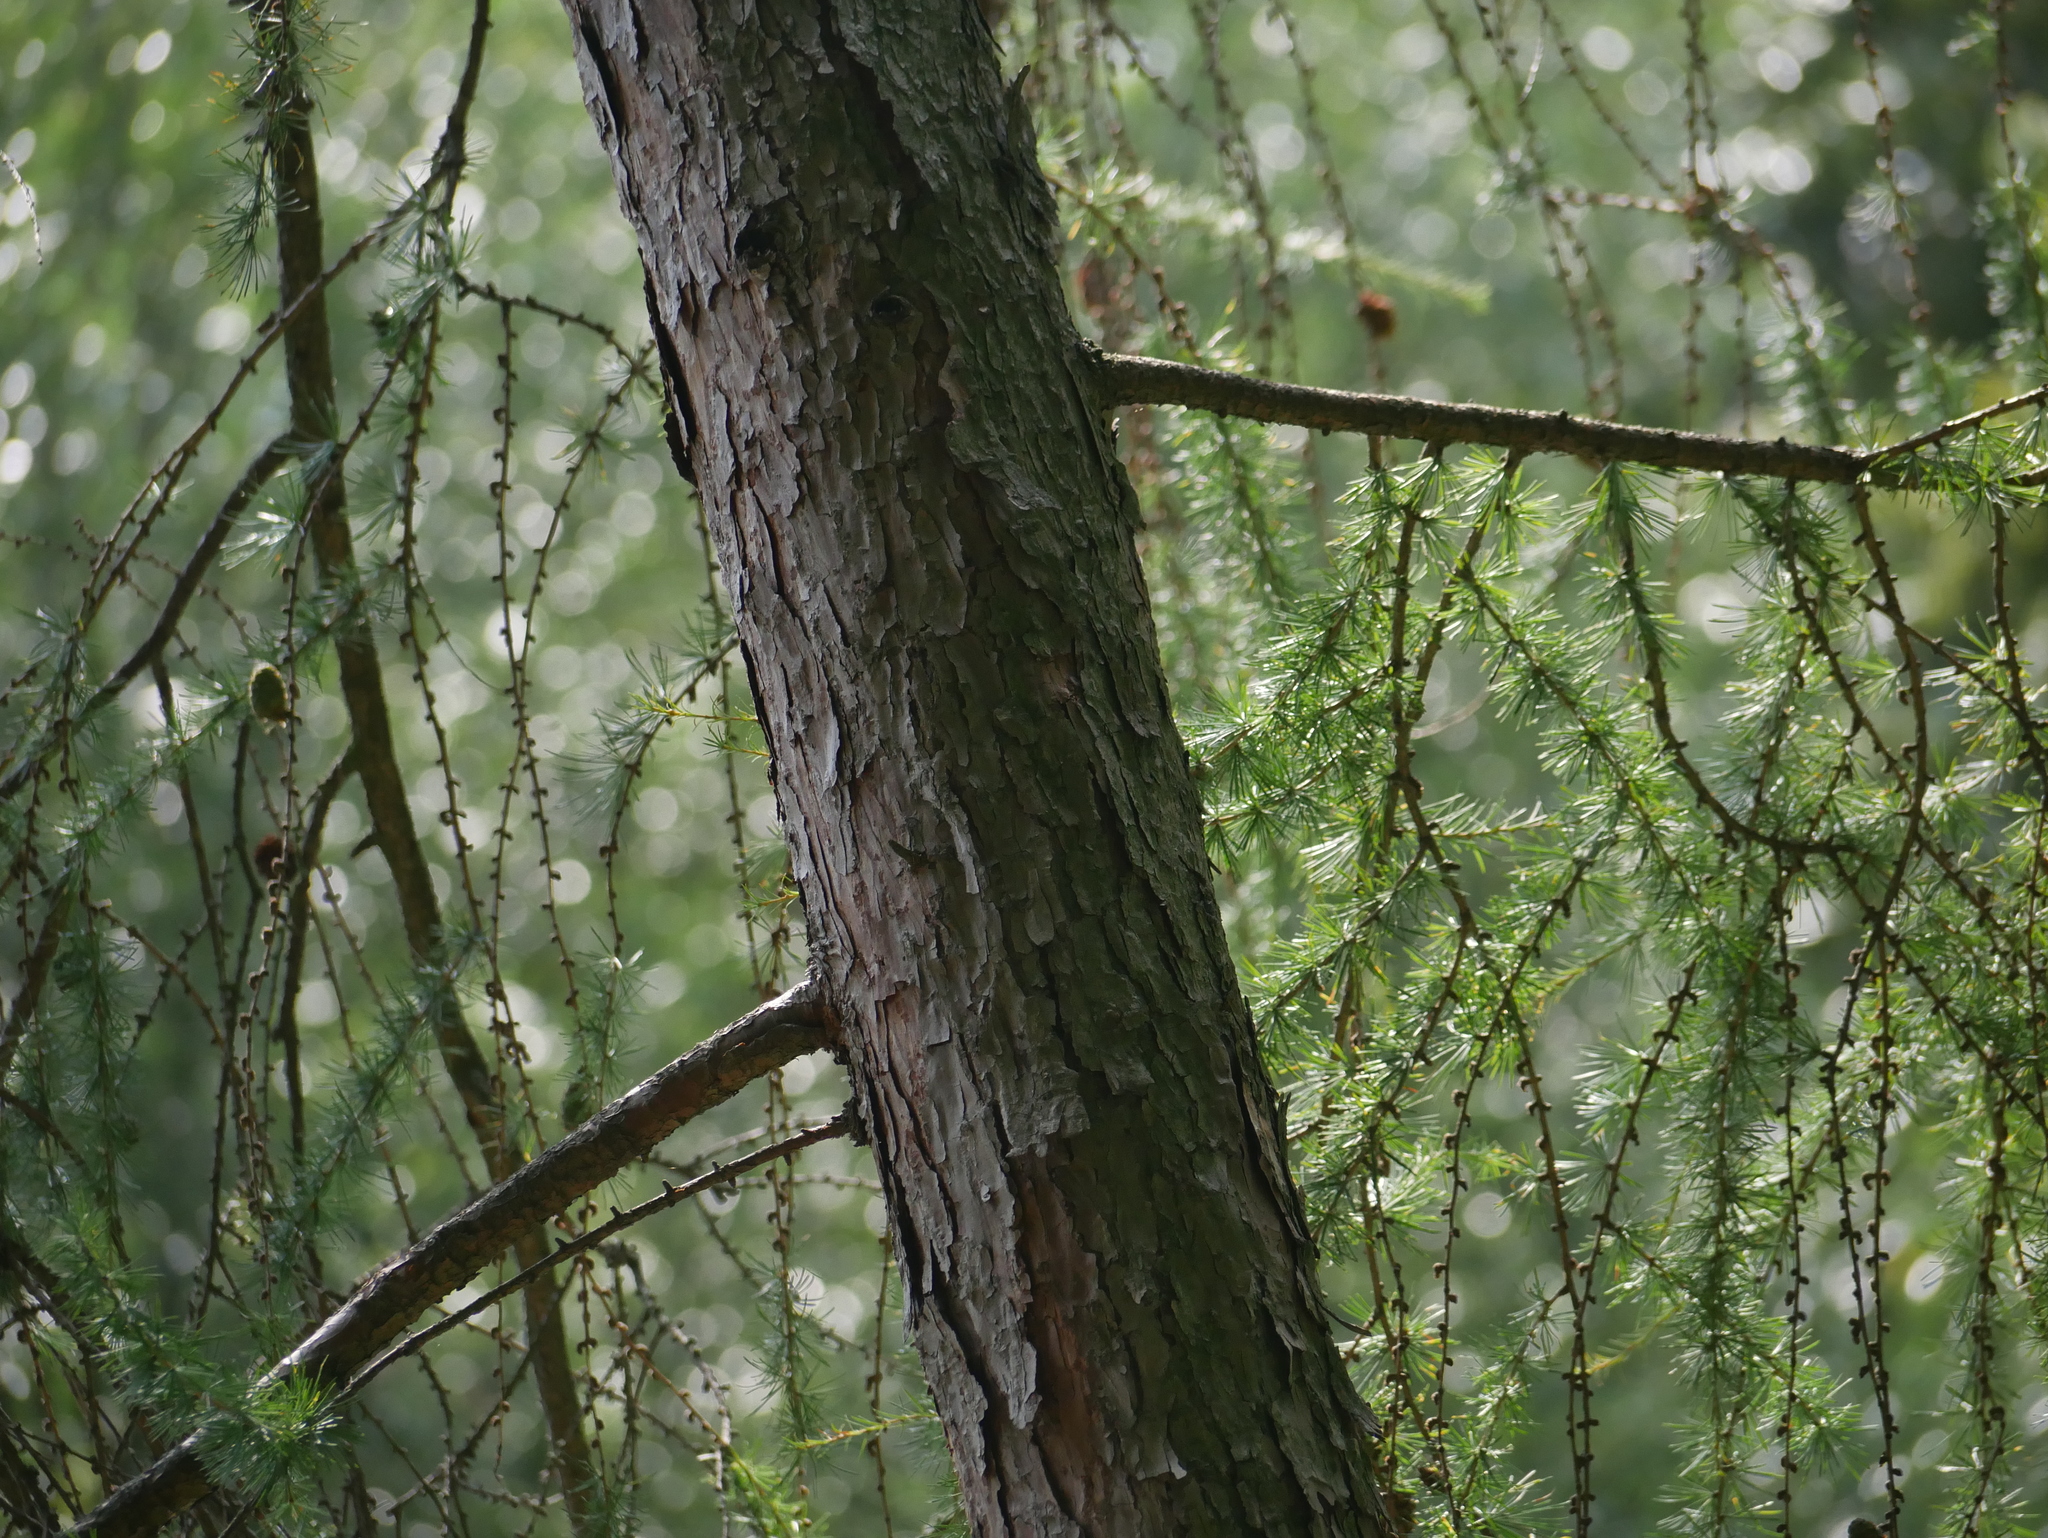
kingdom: Plantae
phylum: Tracheophyta
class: Pinopsida
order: Pinales
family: Pinaceae
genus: Larix
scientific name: Larix decidua
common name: European larch
